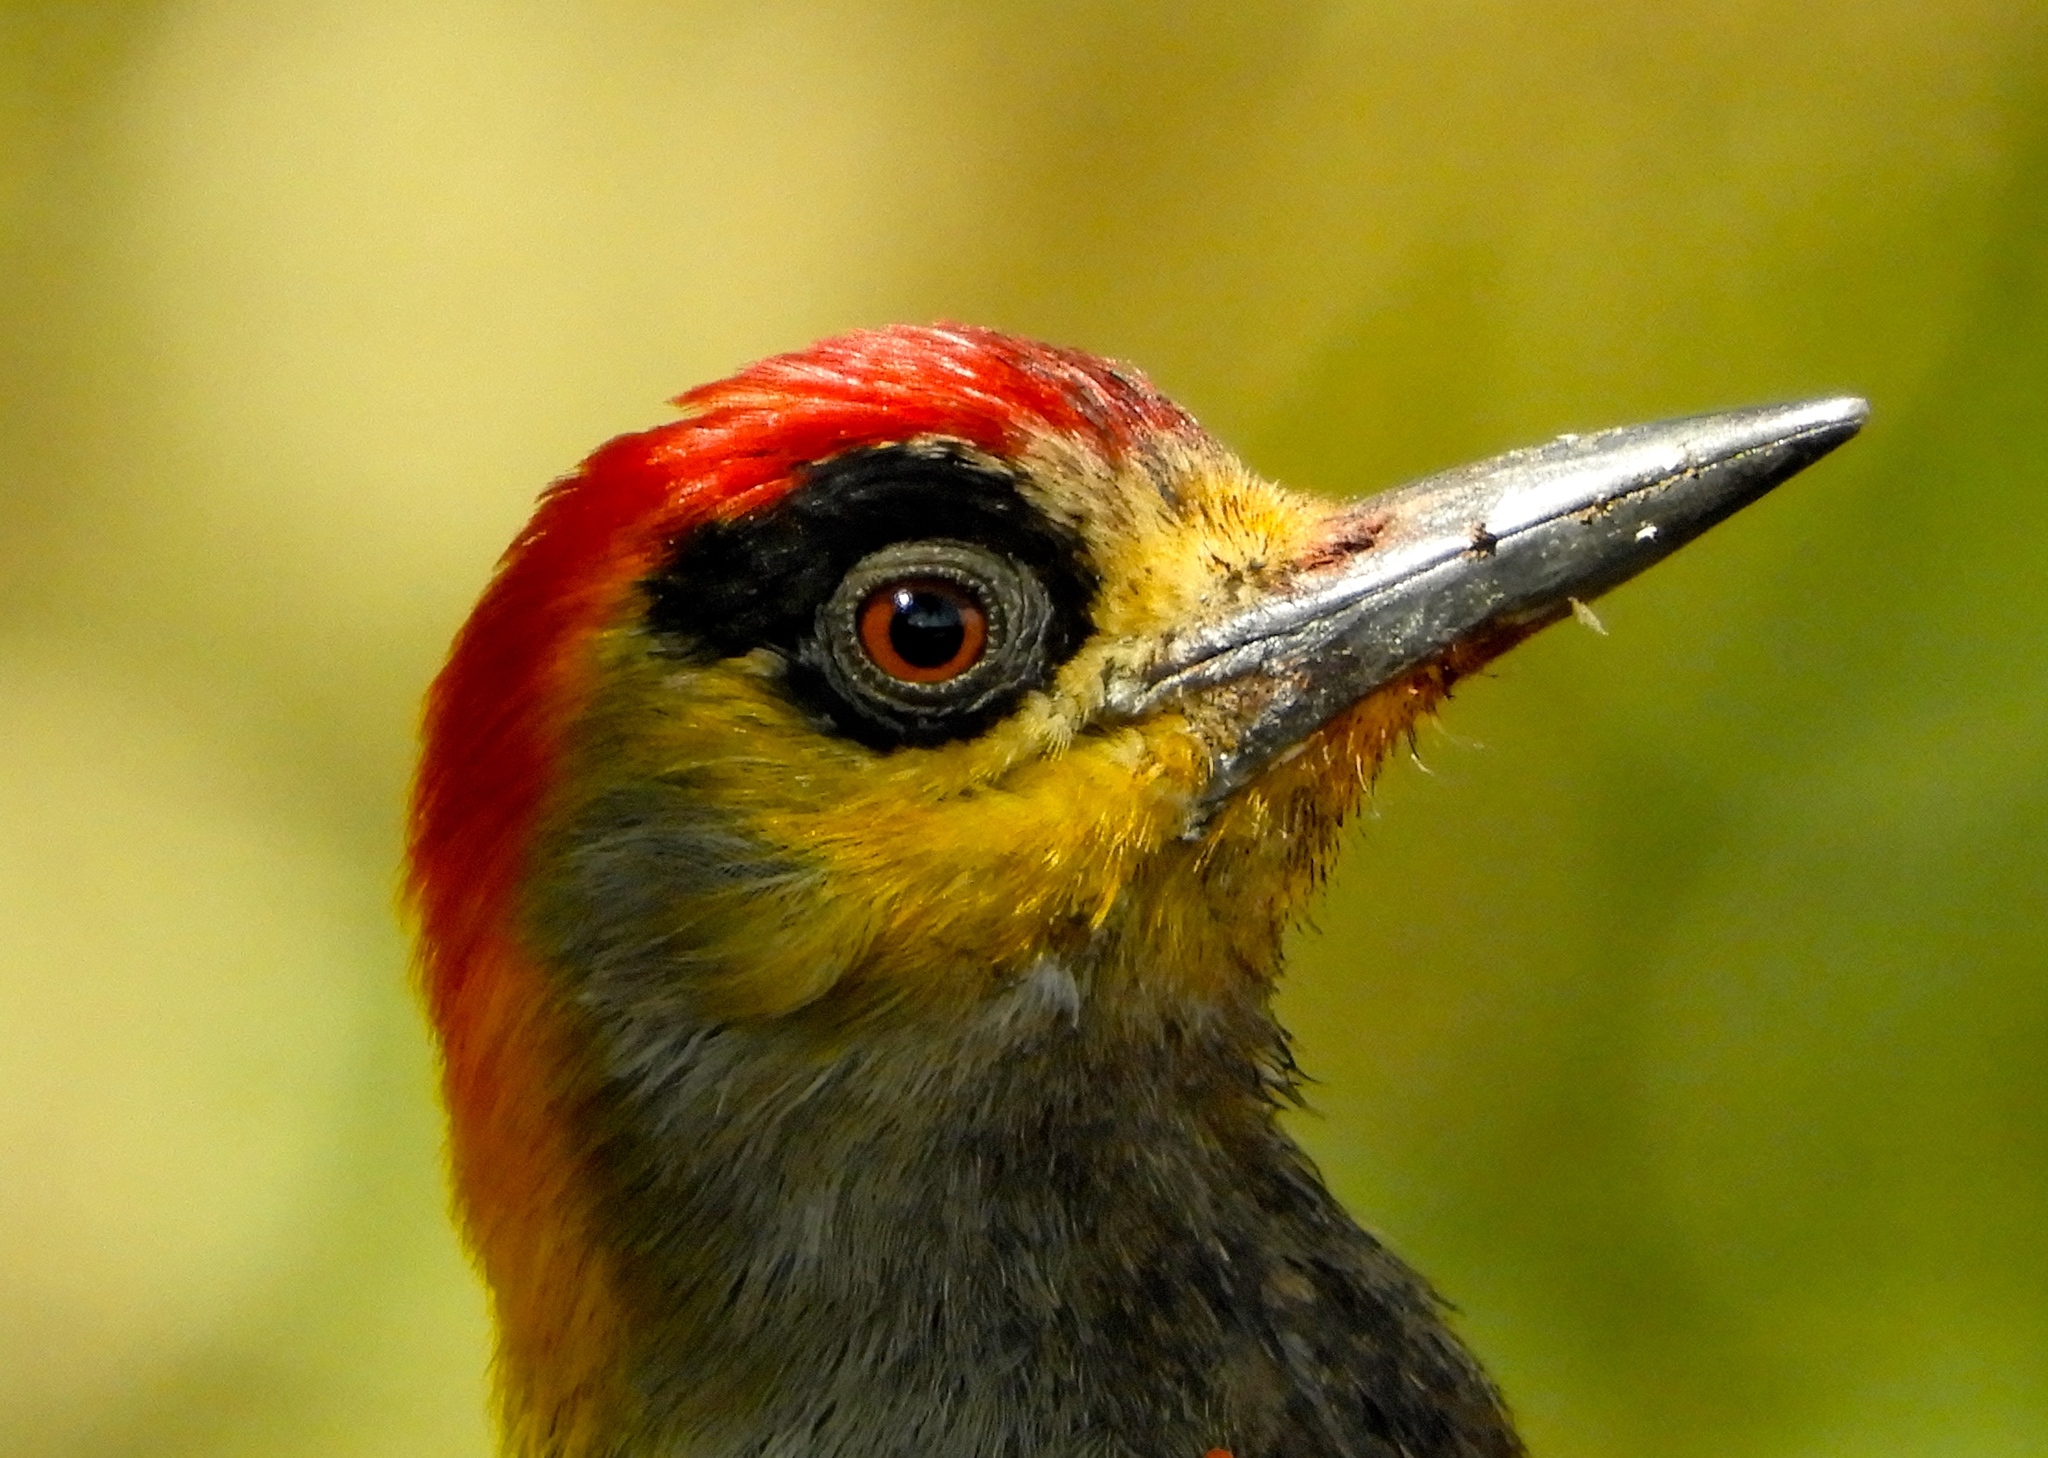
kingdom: Animalia
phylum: Chordata
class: Aves
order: Piciformes
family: Picidae
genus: Melanerpes
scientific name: Melanerpes chrysogenys
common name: Golden-cheeked woodpecker
